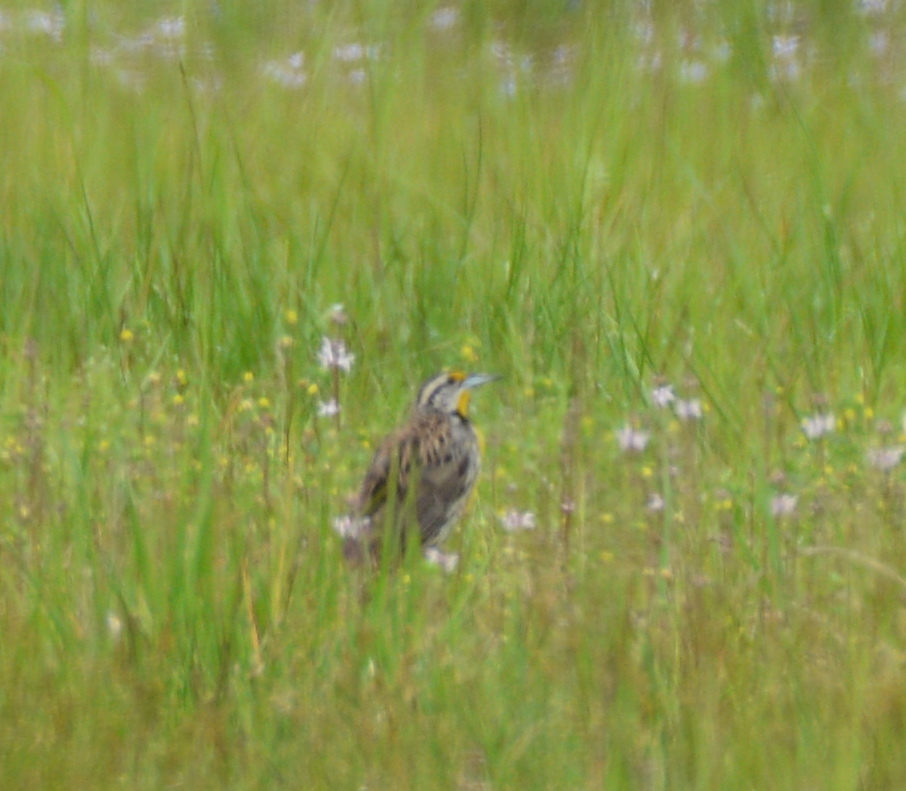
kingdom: Animalia
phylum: Chordata
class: Aves
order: Passeriformes
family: Icteridae
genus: Sturnella
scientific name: Sturnella magna
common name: Eastern meadowlark
